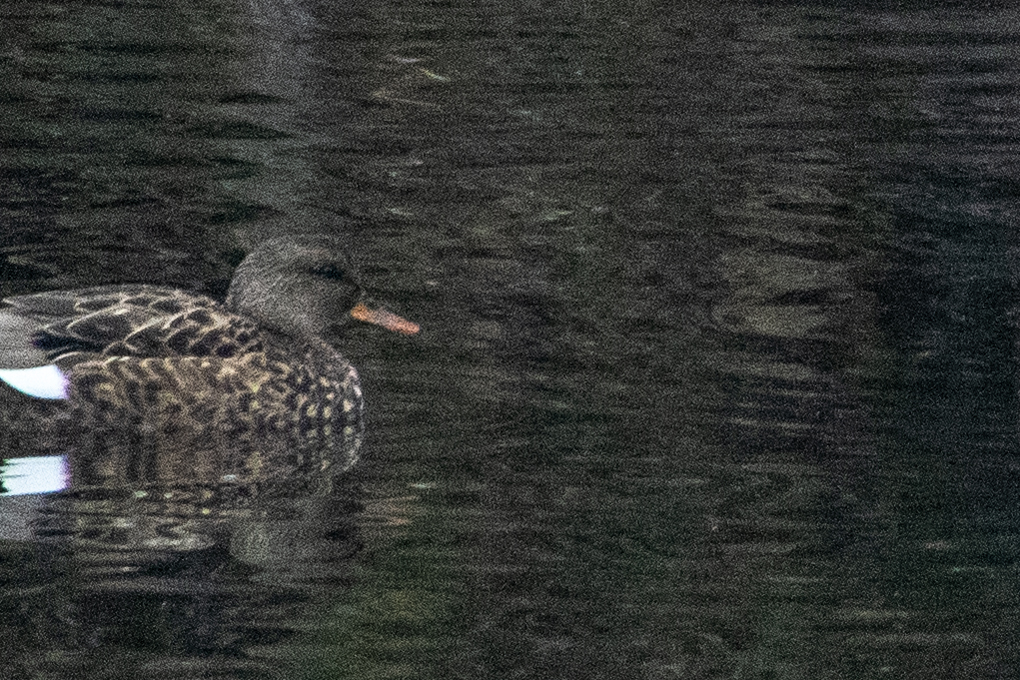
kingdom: Animalia
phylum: Chordata
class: Aves
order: Anseriformes
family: Anatidae
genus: Mareca
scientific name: Mareca strepera
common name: Gadwall
